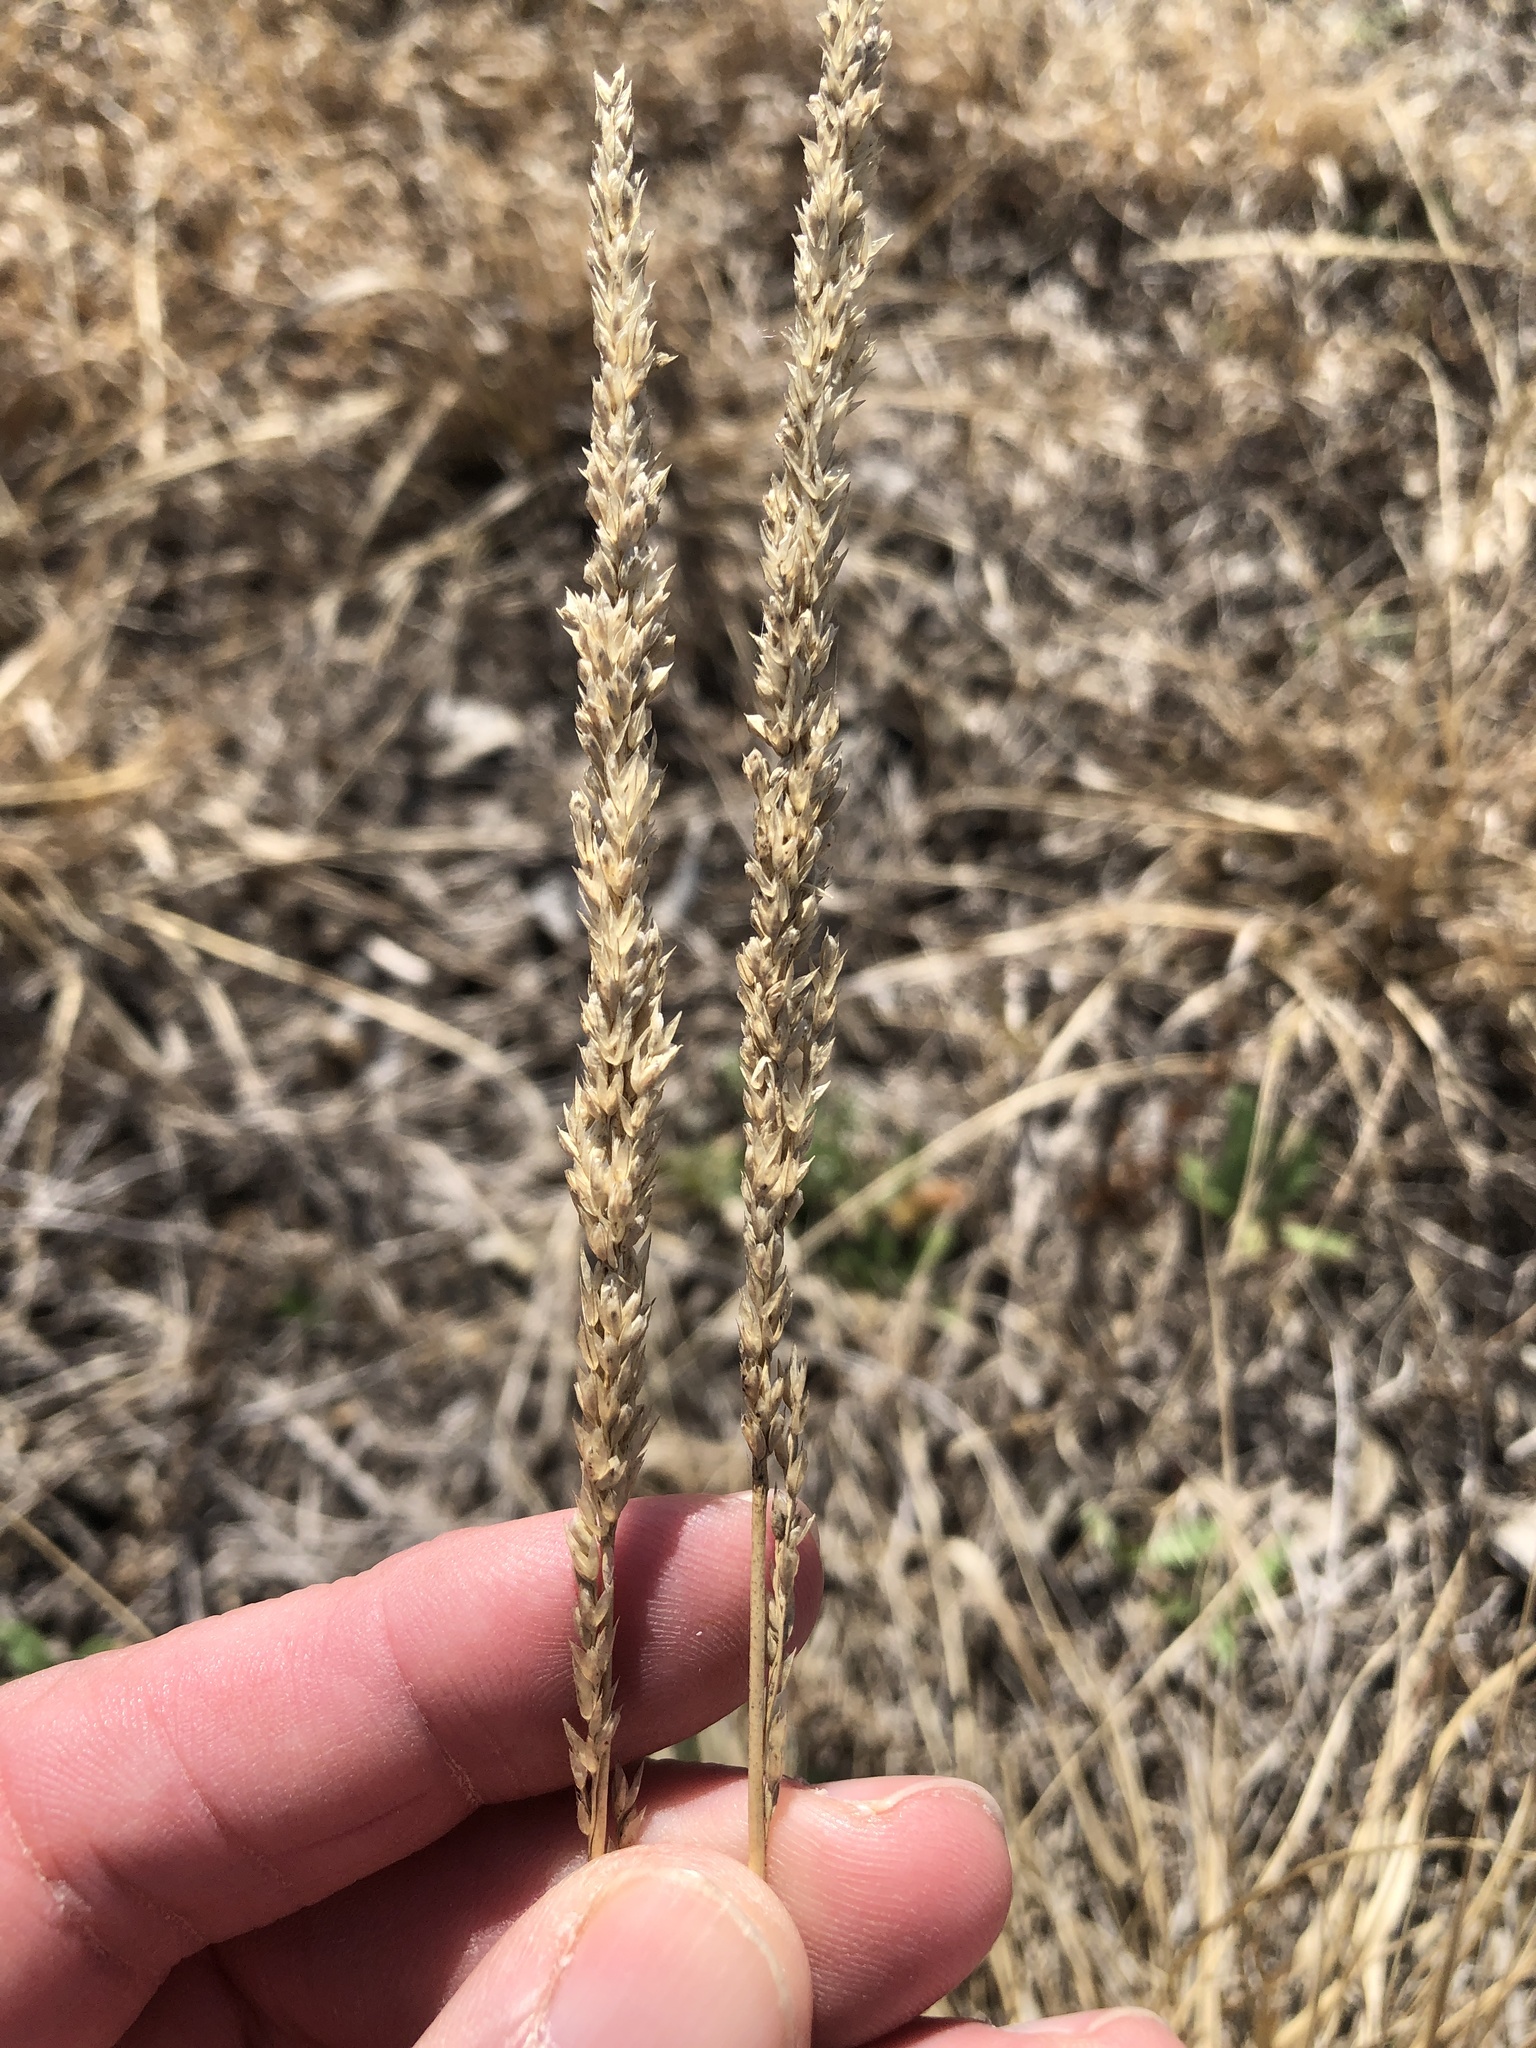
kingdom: Plantae
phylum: Tracheophyta
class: Liliopsida
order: Poales
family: Poaceae
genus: Tridens
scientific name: Tridens albescens
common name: White tridens
